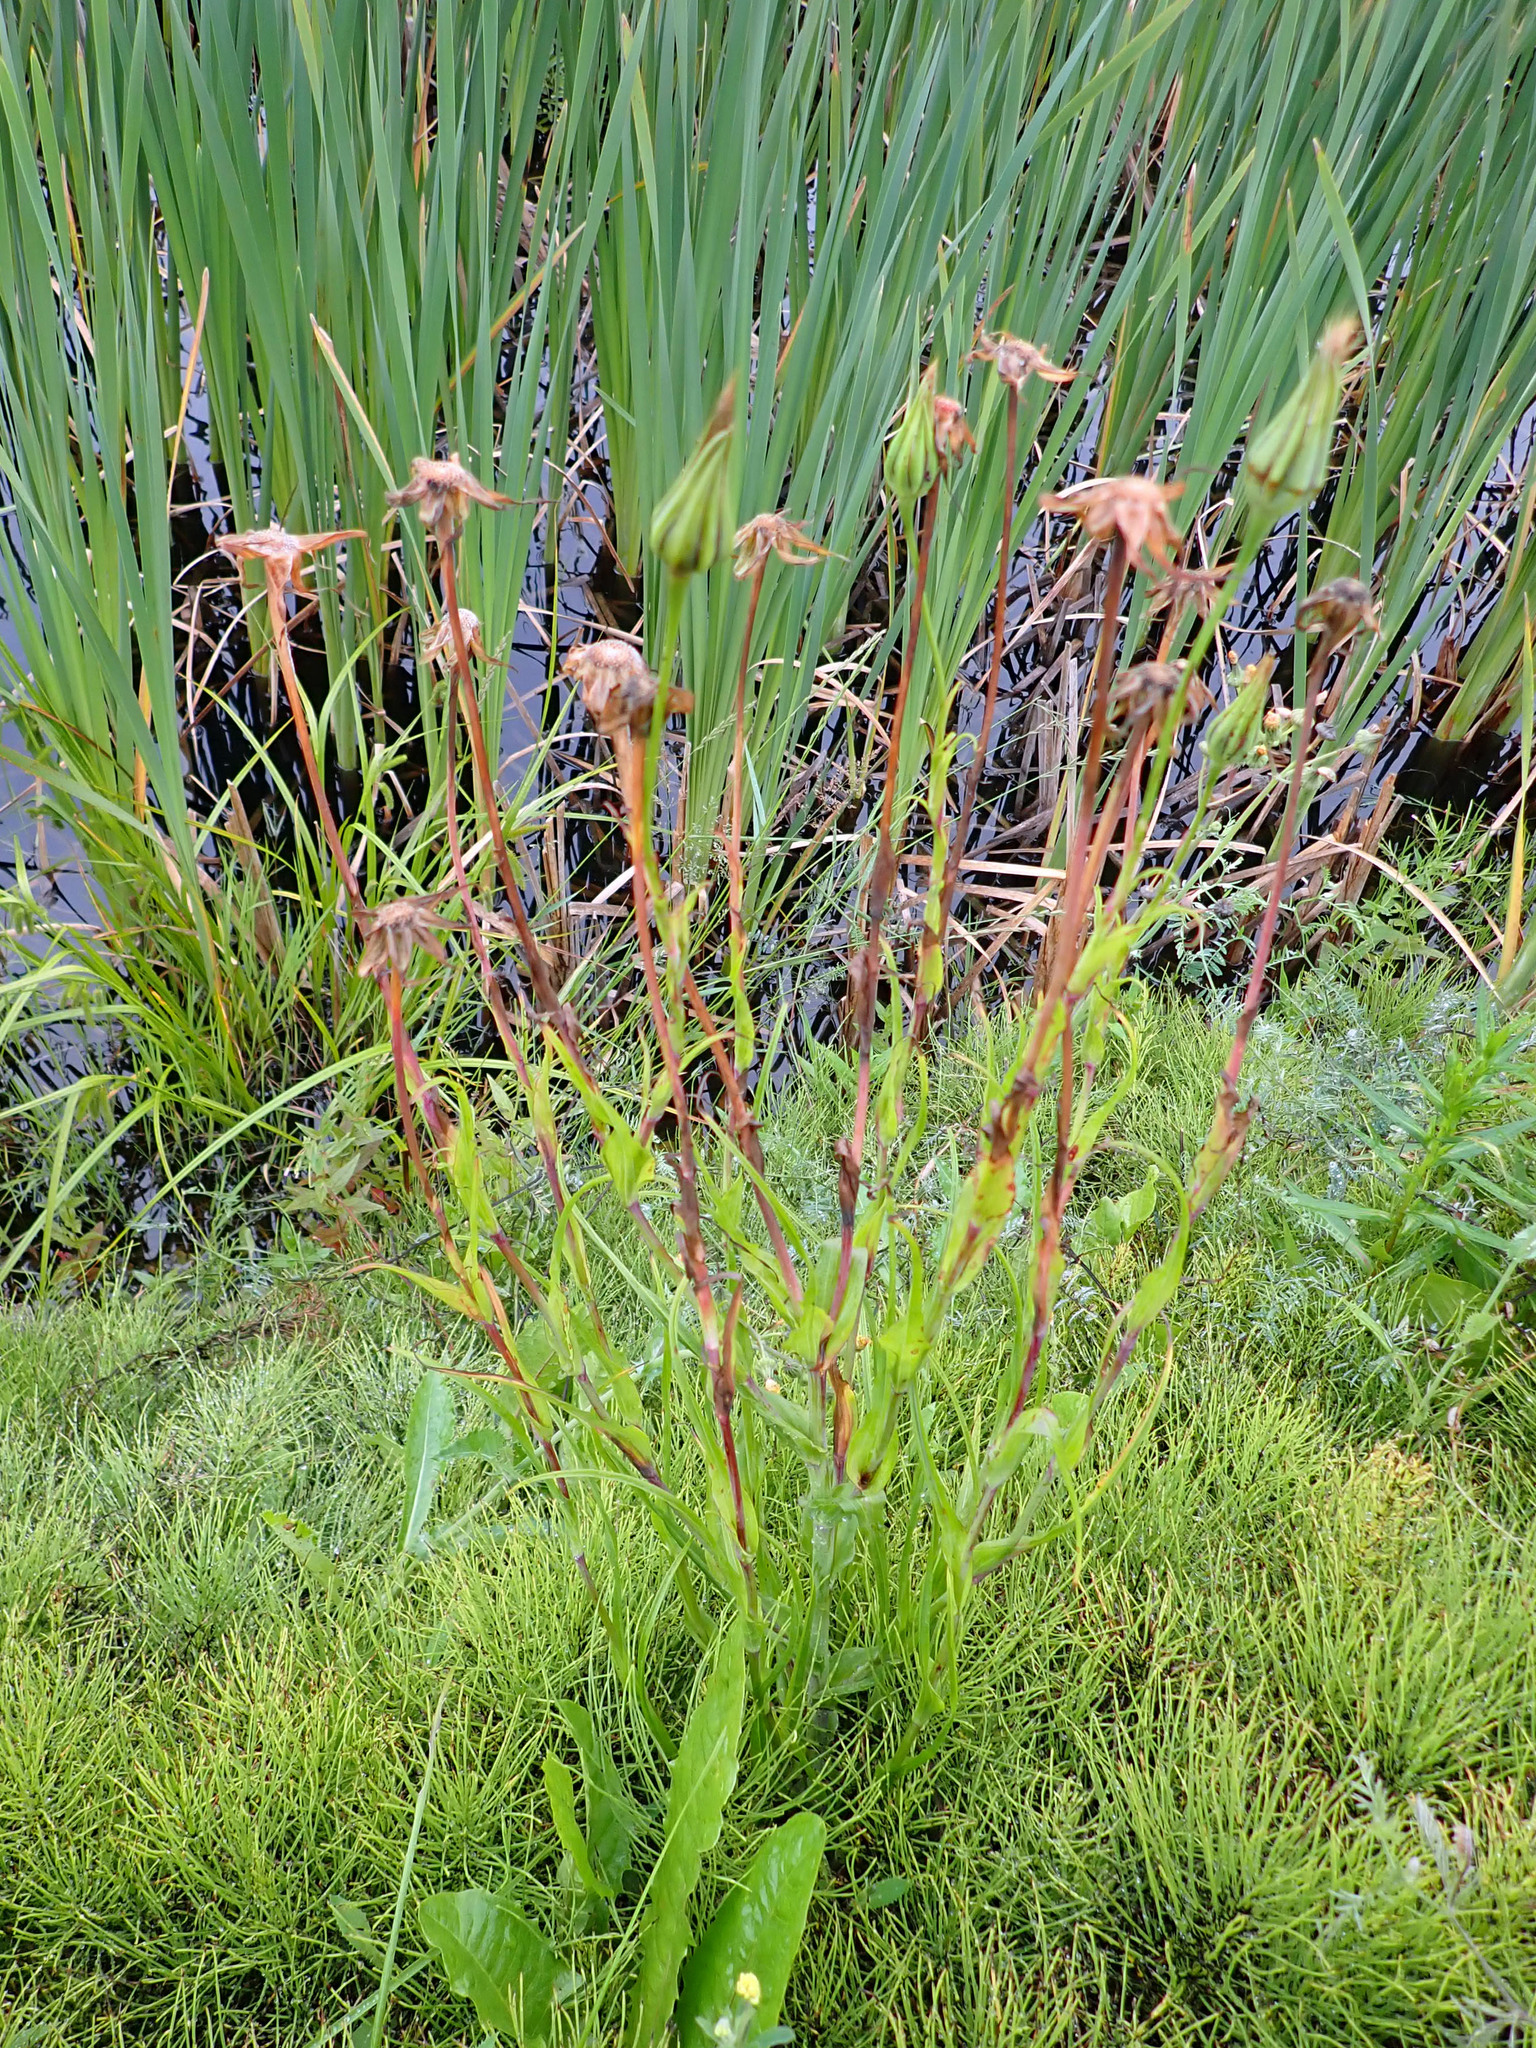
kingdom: Plantae
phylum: Tracheophyta
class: Magnoliopsida
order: Asterales
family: Asteraceae
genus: Tragopogon
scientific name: Tragopogon pratensis
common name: Goat's-beard
